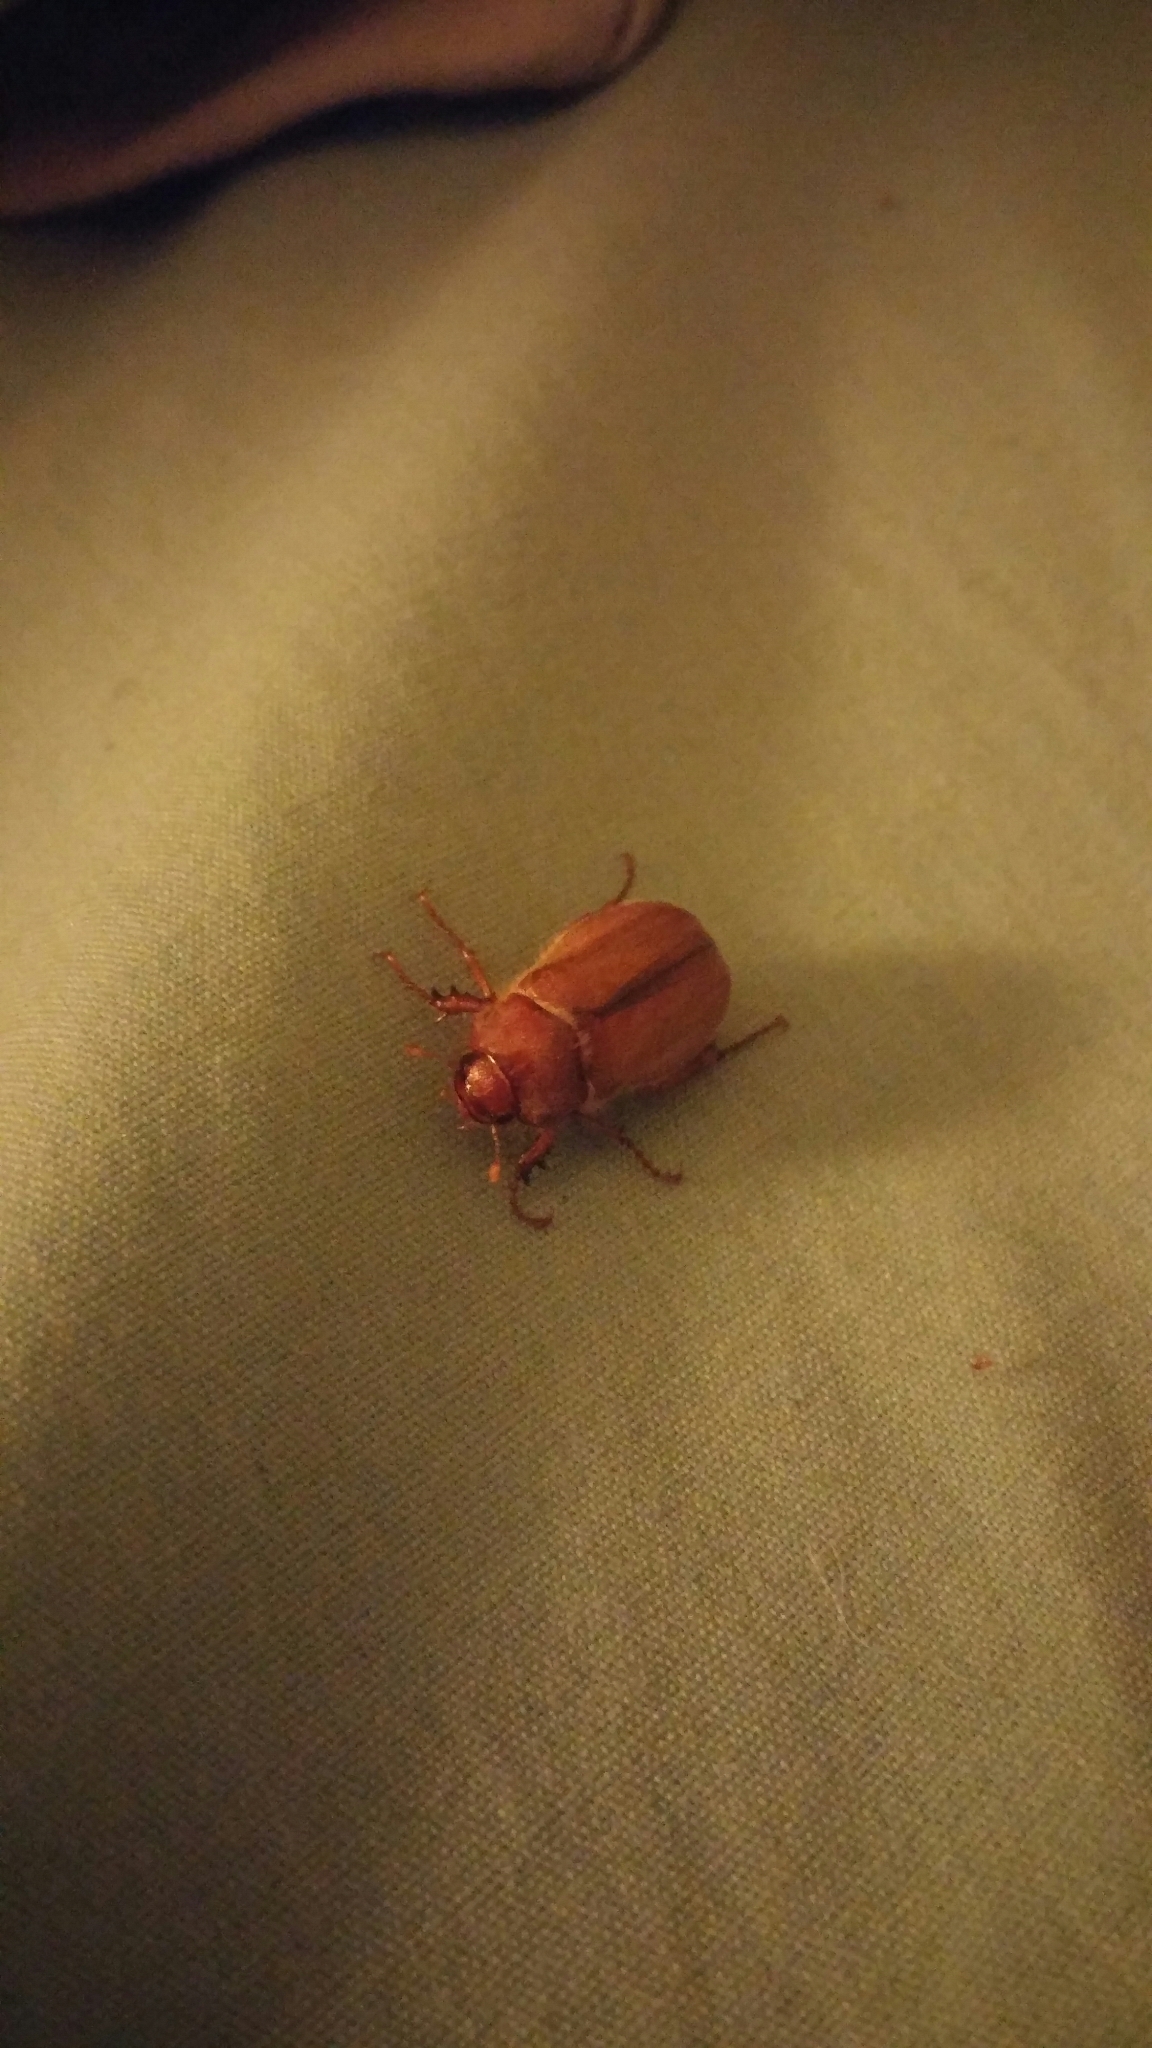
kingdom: Animalia
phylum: Arthropoda
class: Insecta
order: Coleoptera
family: Scarabaeidae
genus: Amphimallon
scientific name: Amphimallon majale
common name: European chafer
